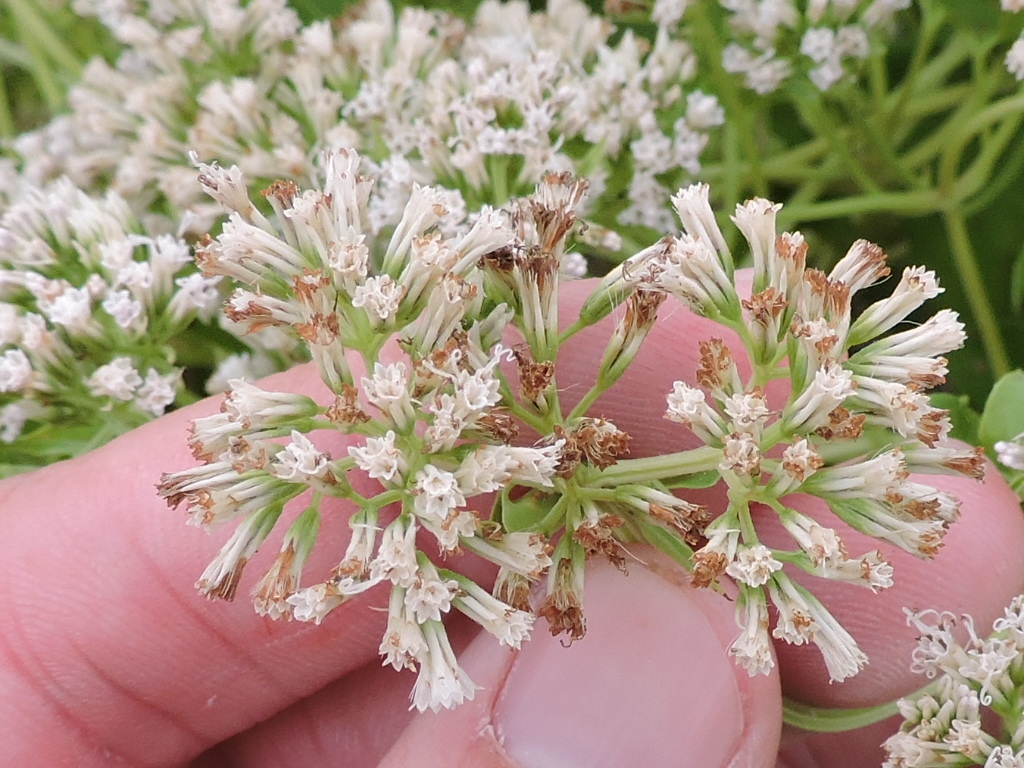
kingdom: Plantae
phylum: Tracheophyta
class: Magnoliopsida
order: Asterales
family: Asteraceae
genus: Mikania
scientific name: Mikania scandens
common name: Climbing hempvine
